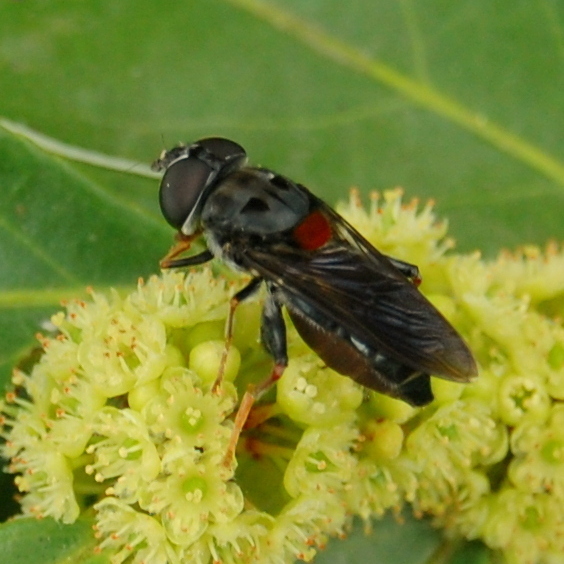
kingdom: Animalia
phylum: Arthropoda
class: Insecta
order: Diptera
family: Syrphidae
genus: Palpada
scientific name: Palpada rufoscutellata
